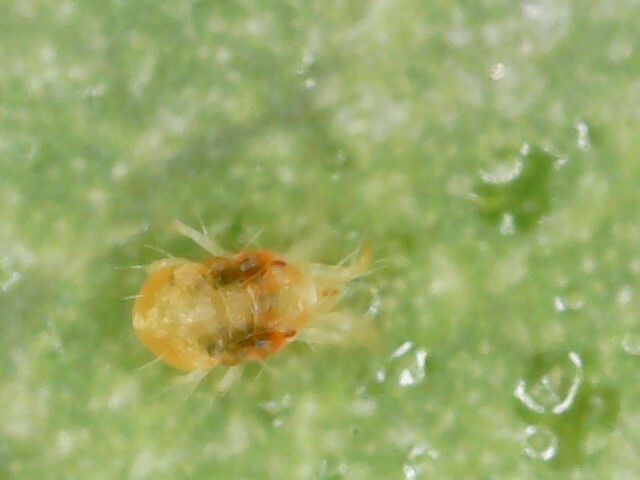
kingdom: Animalia
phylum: Arthropoda
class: Arachnida
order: Trombidiformes
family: Tetranychidae
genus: Tetranychus
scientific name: Tetranychus urticae
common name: Carmine spider mite
